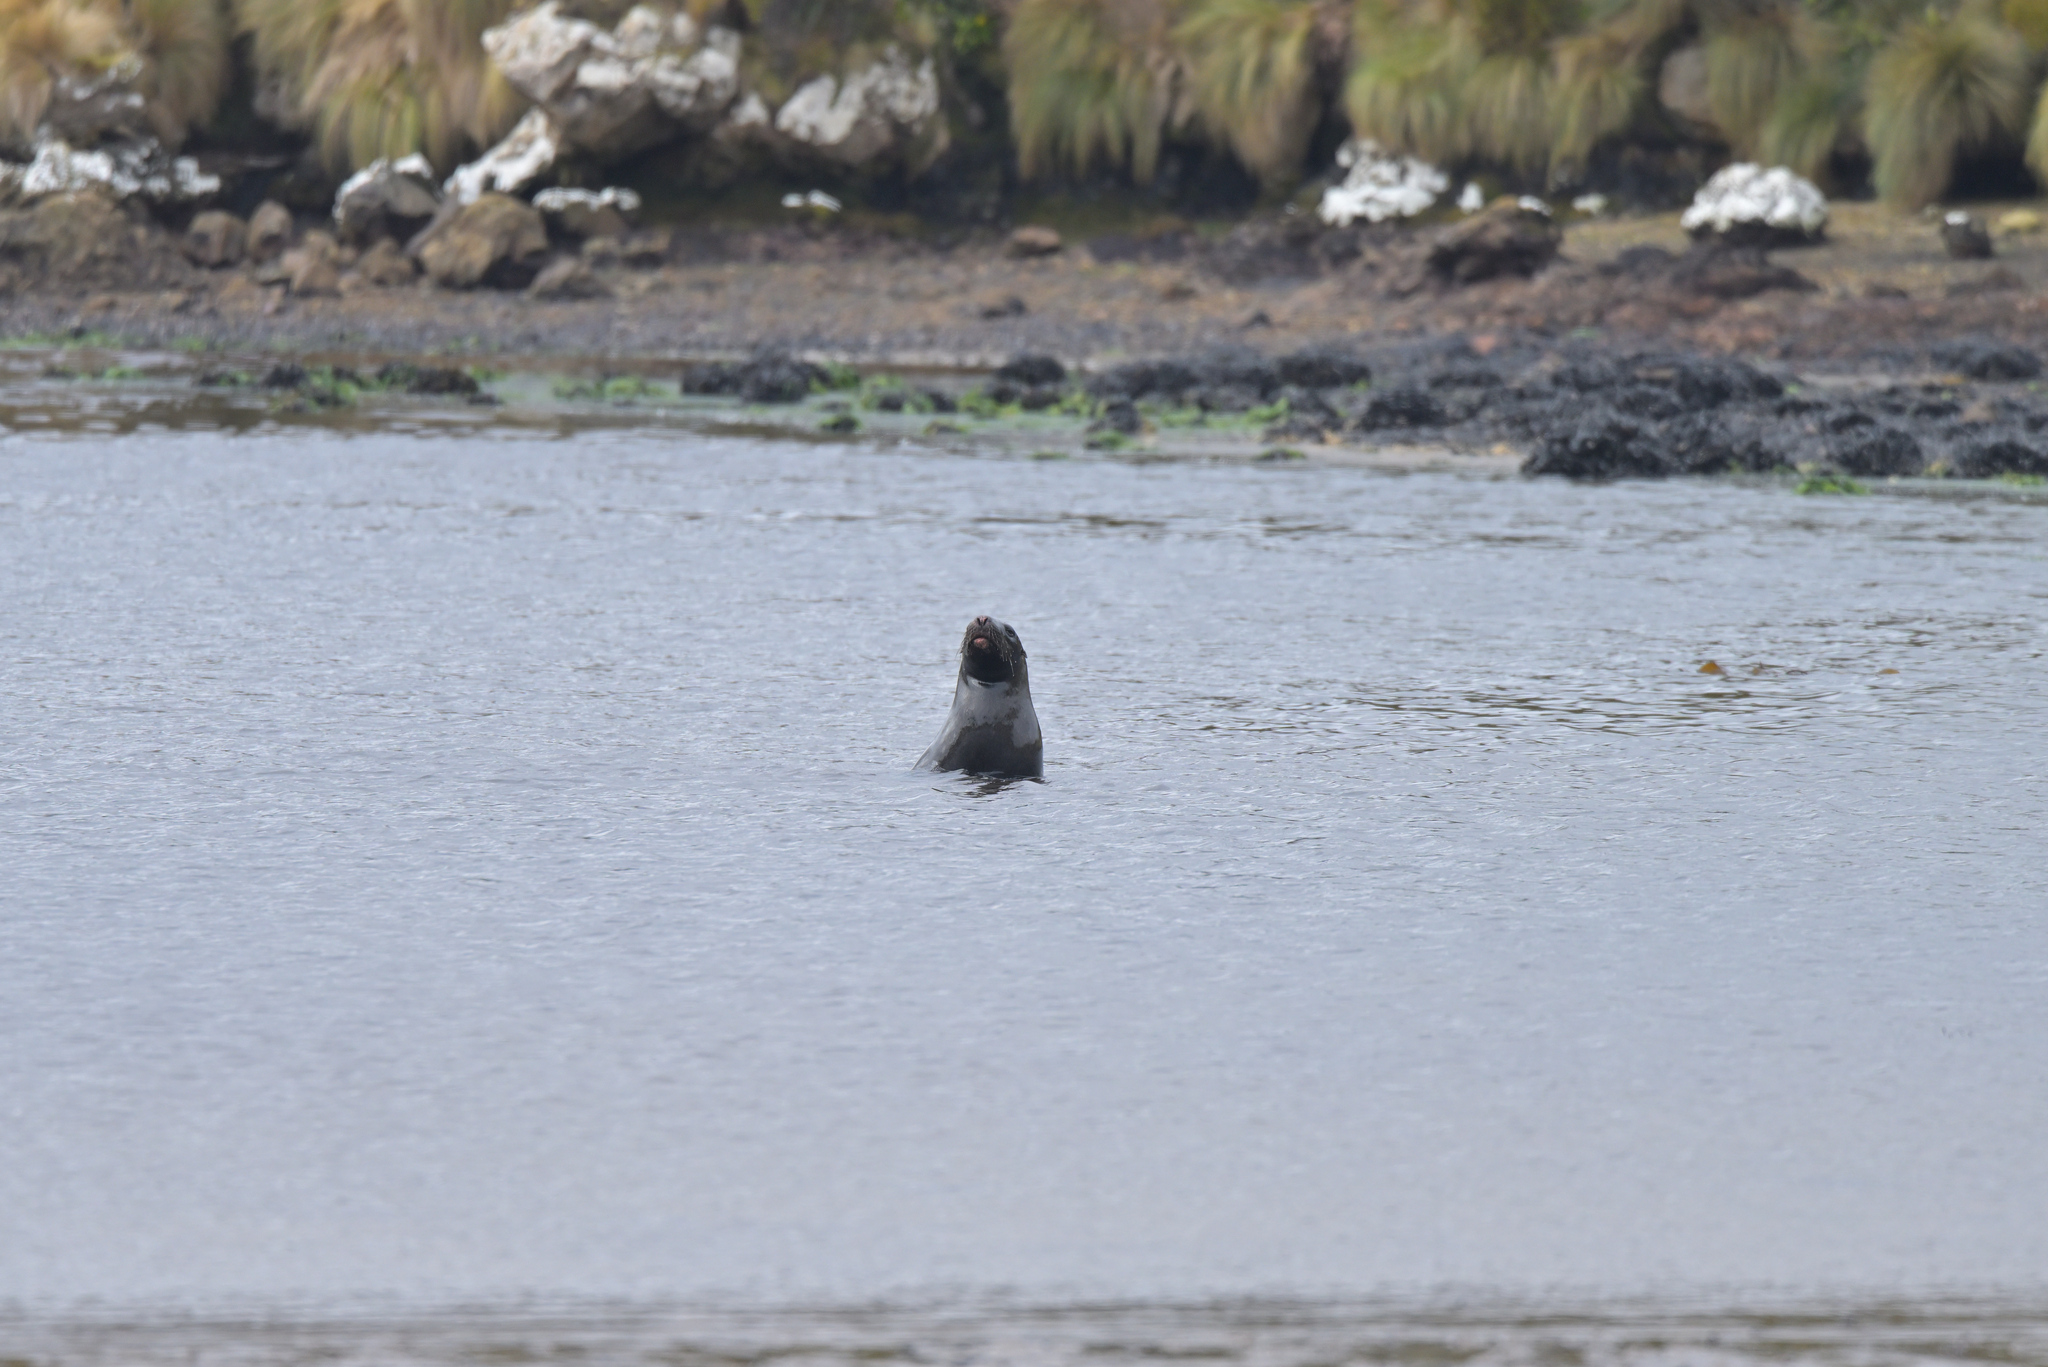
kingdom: Animalia
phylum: Chordata
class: Mammalia
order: Carnivora
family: Otariidae
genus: Phocarctos
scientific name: Phocarctos hookeri
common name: New zealand sea lion
